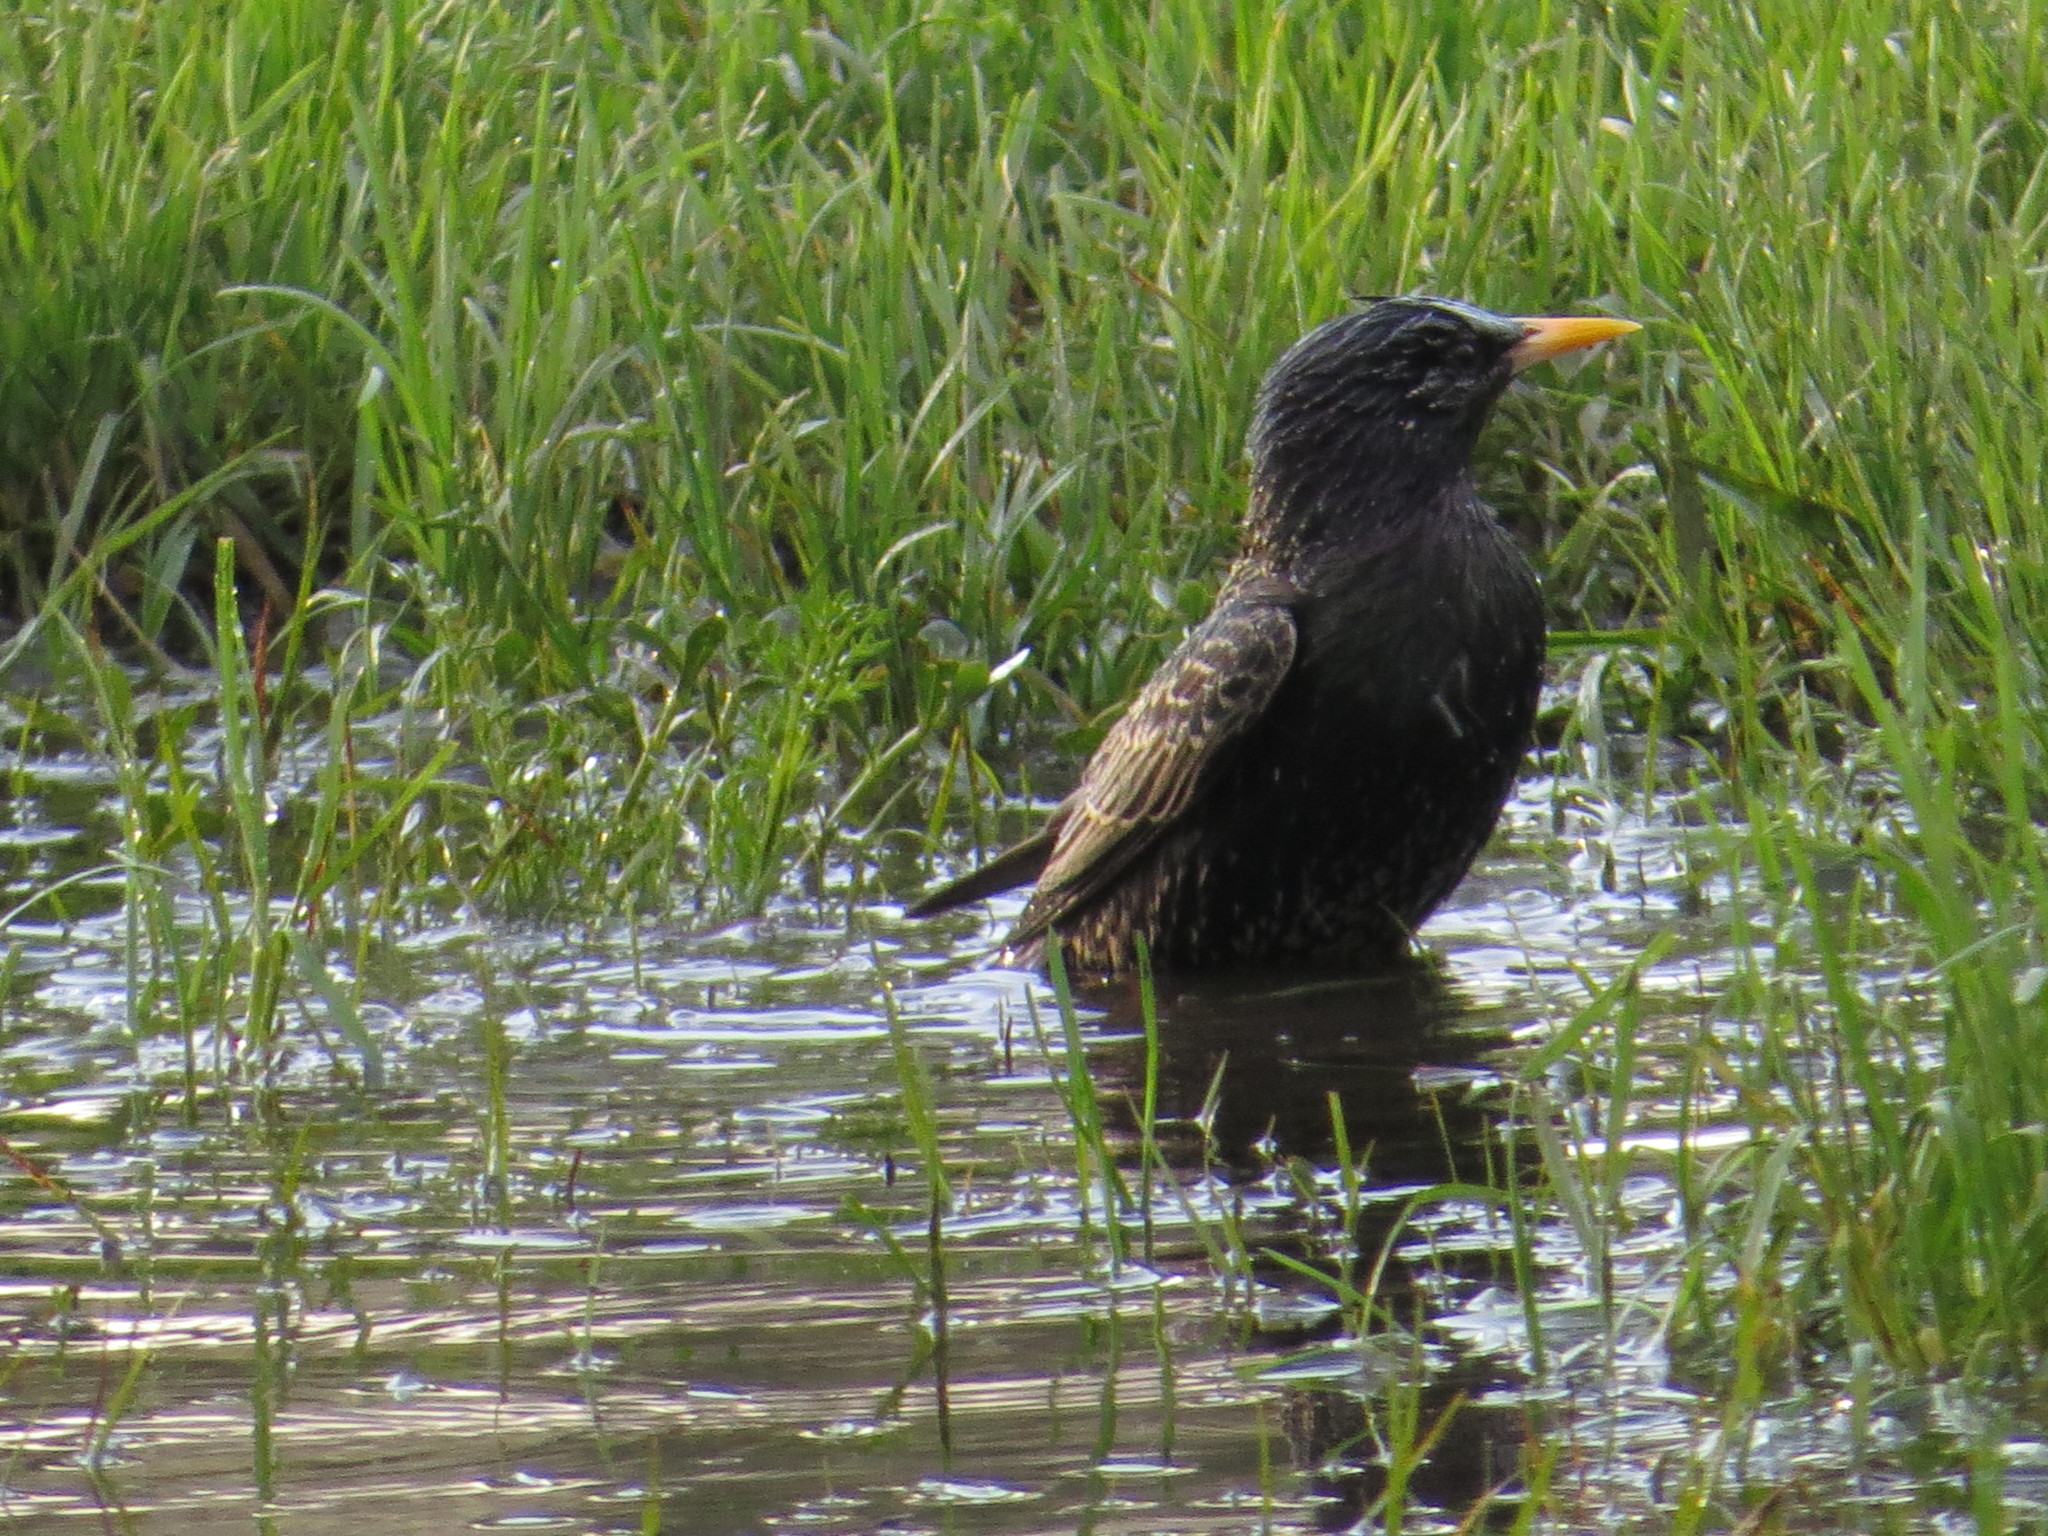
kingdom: Animalia
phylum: Chordata
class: Aves
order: Passeriformes
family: Sturnidae
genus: Sturnus
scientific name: Sturnus vulgaris
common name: Common starling
